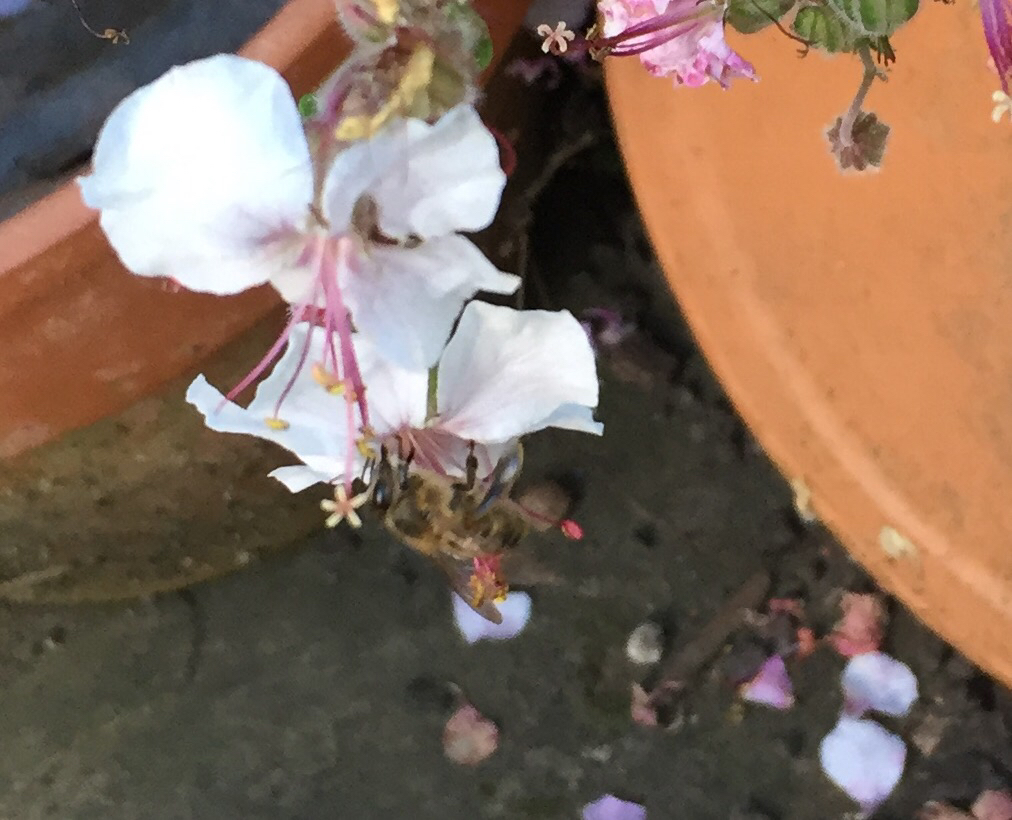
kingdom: Animalia
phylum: Arthropoda
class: Insecta
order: Hymenoptera
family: Apidae
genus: Apis
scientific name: Apis mellifera
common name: Honey bee
